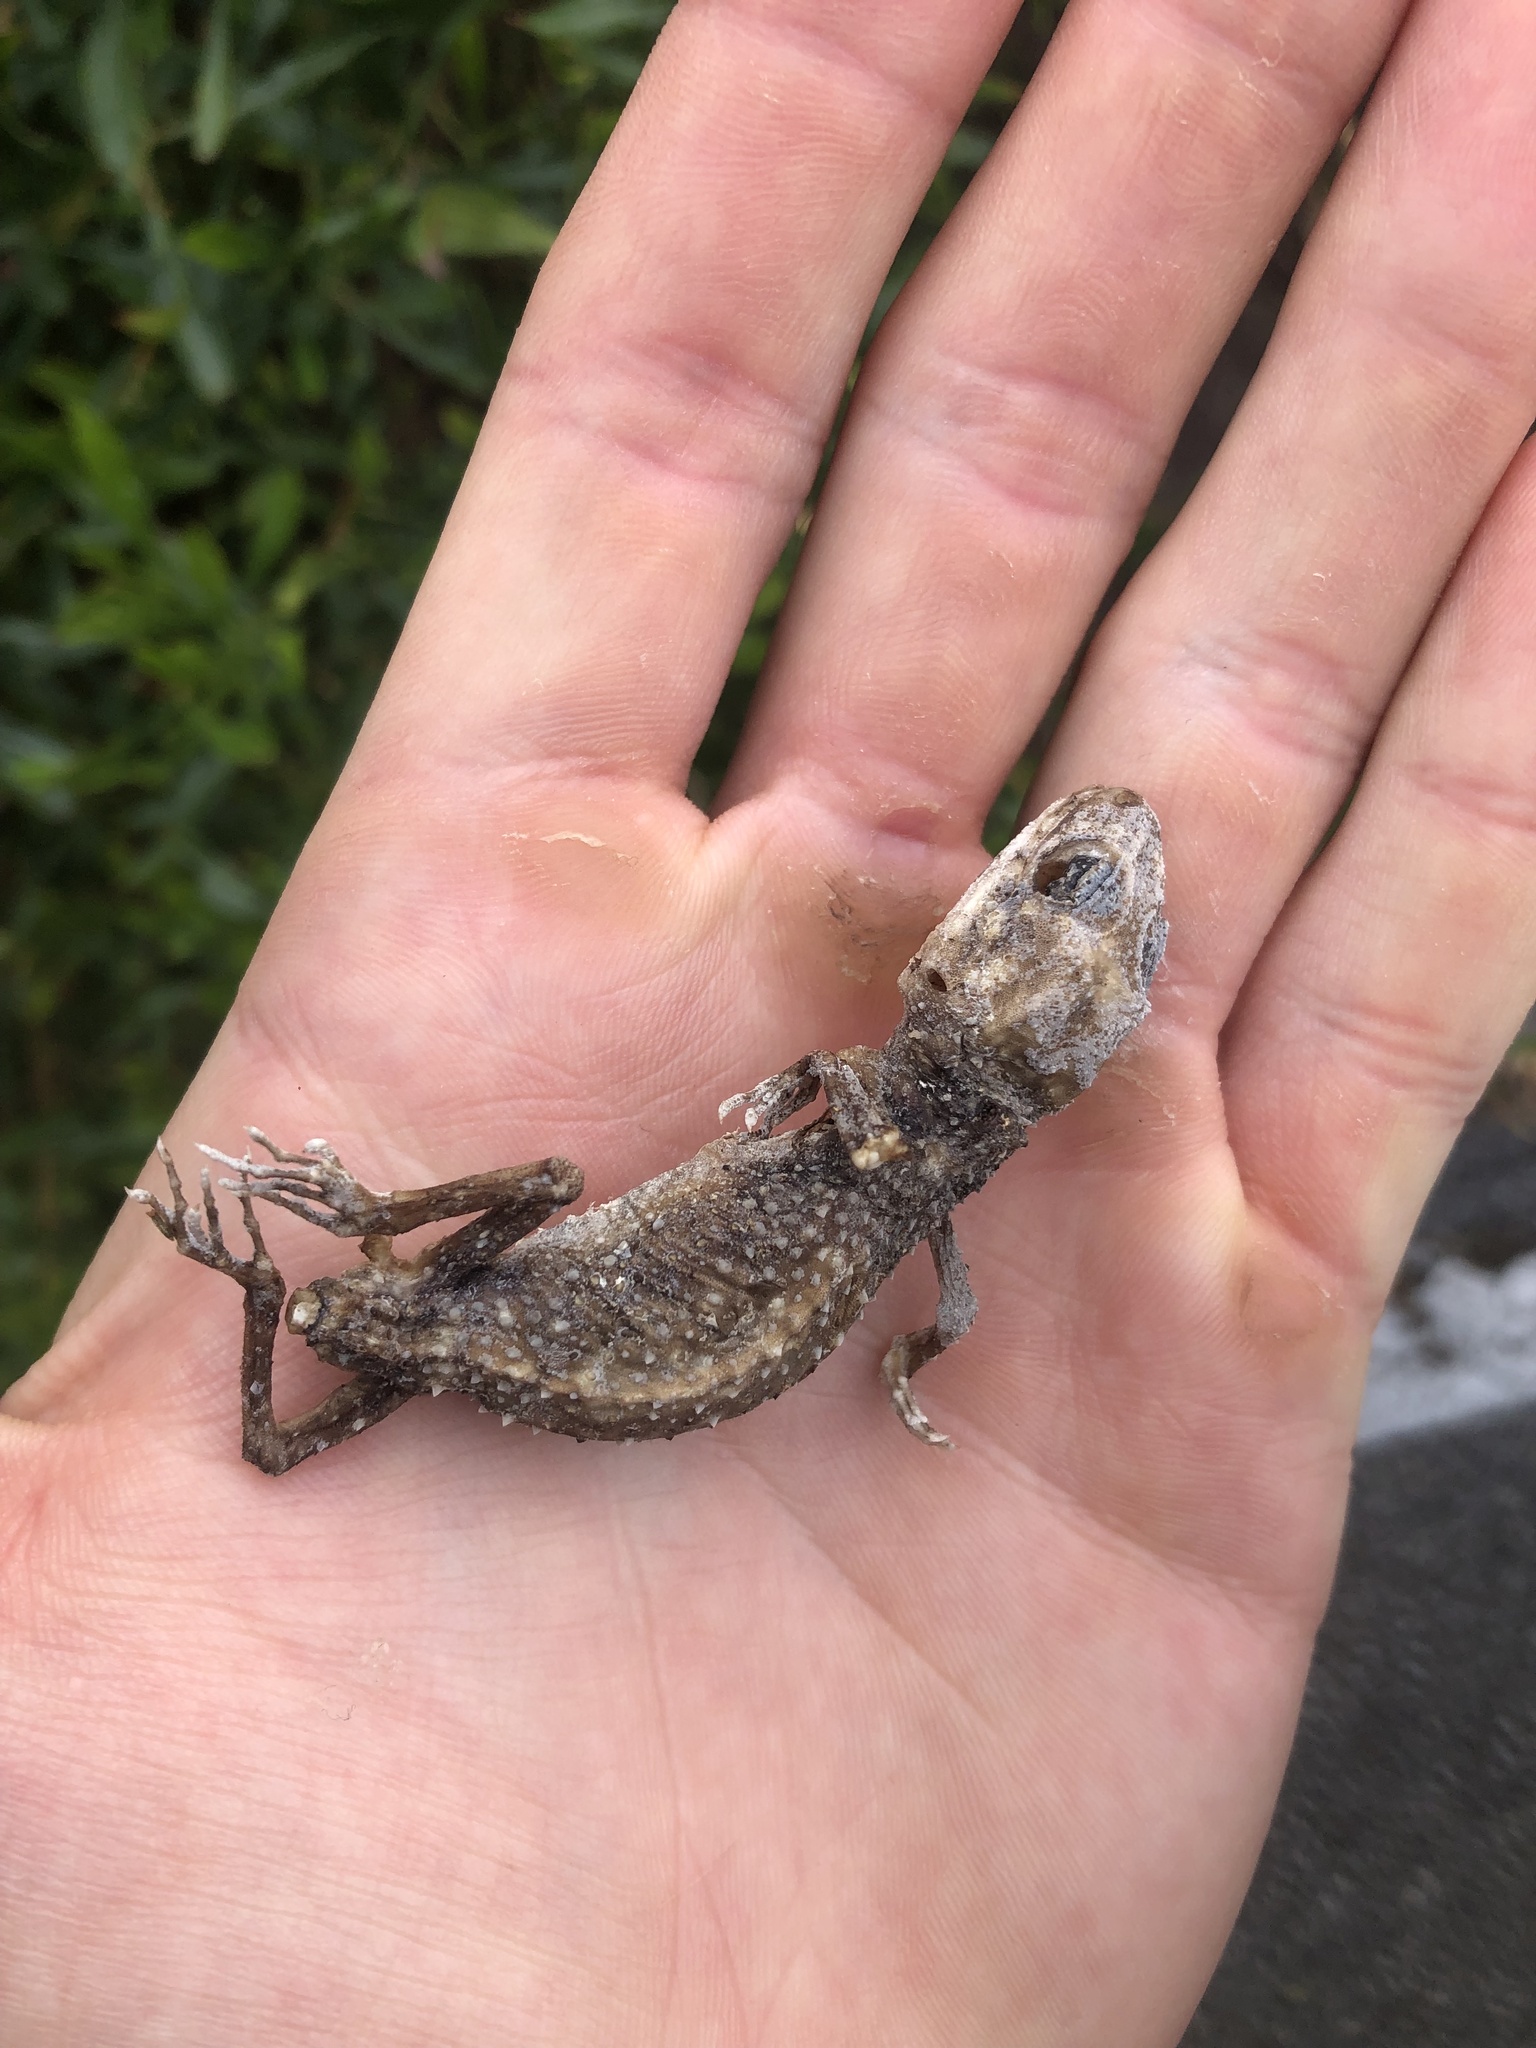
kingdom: Animalia
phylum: Chordata
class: Squamata
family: Carphodactylidae
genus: Underwoodisaurus
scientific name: Underwoodisaurus milii
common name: Barking gecko
